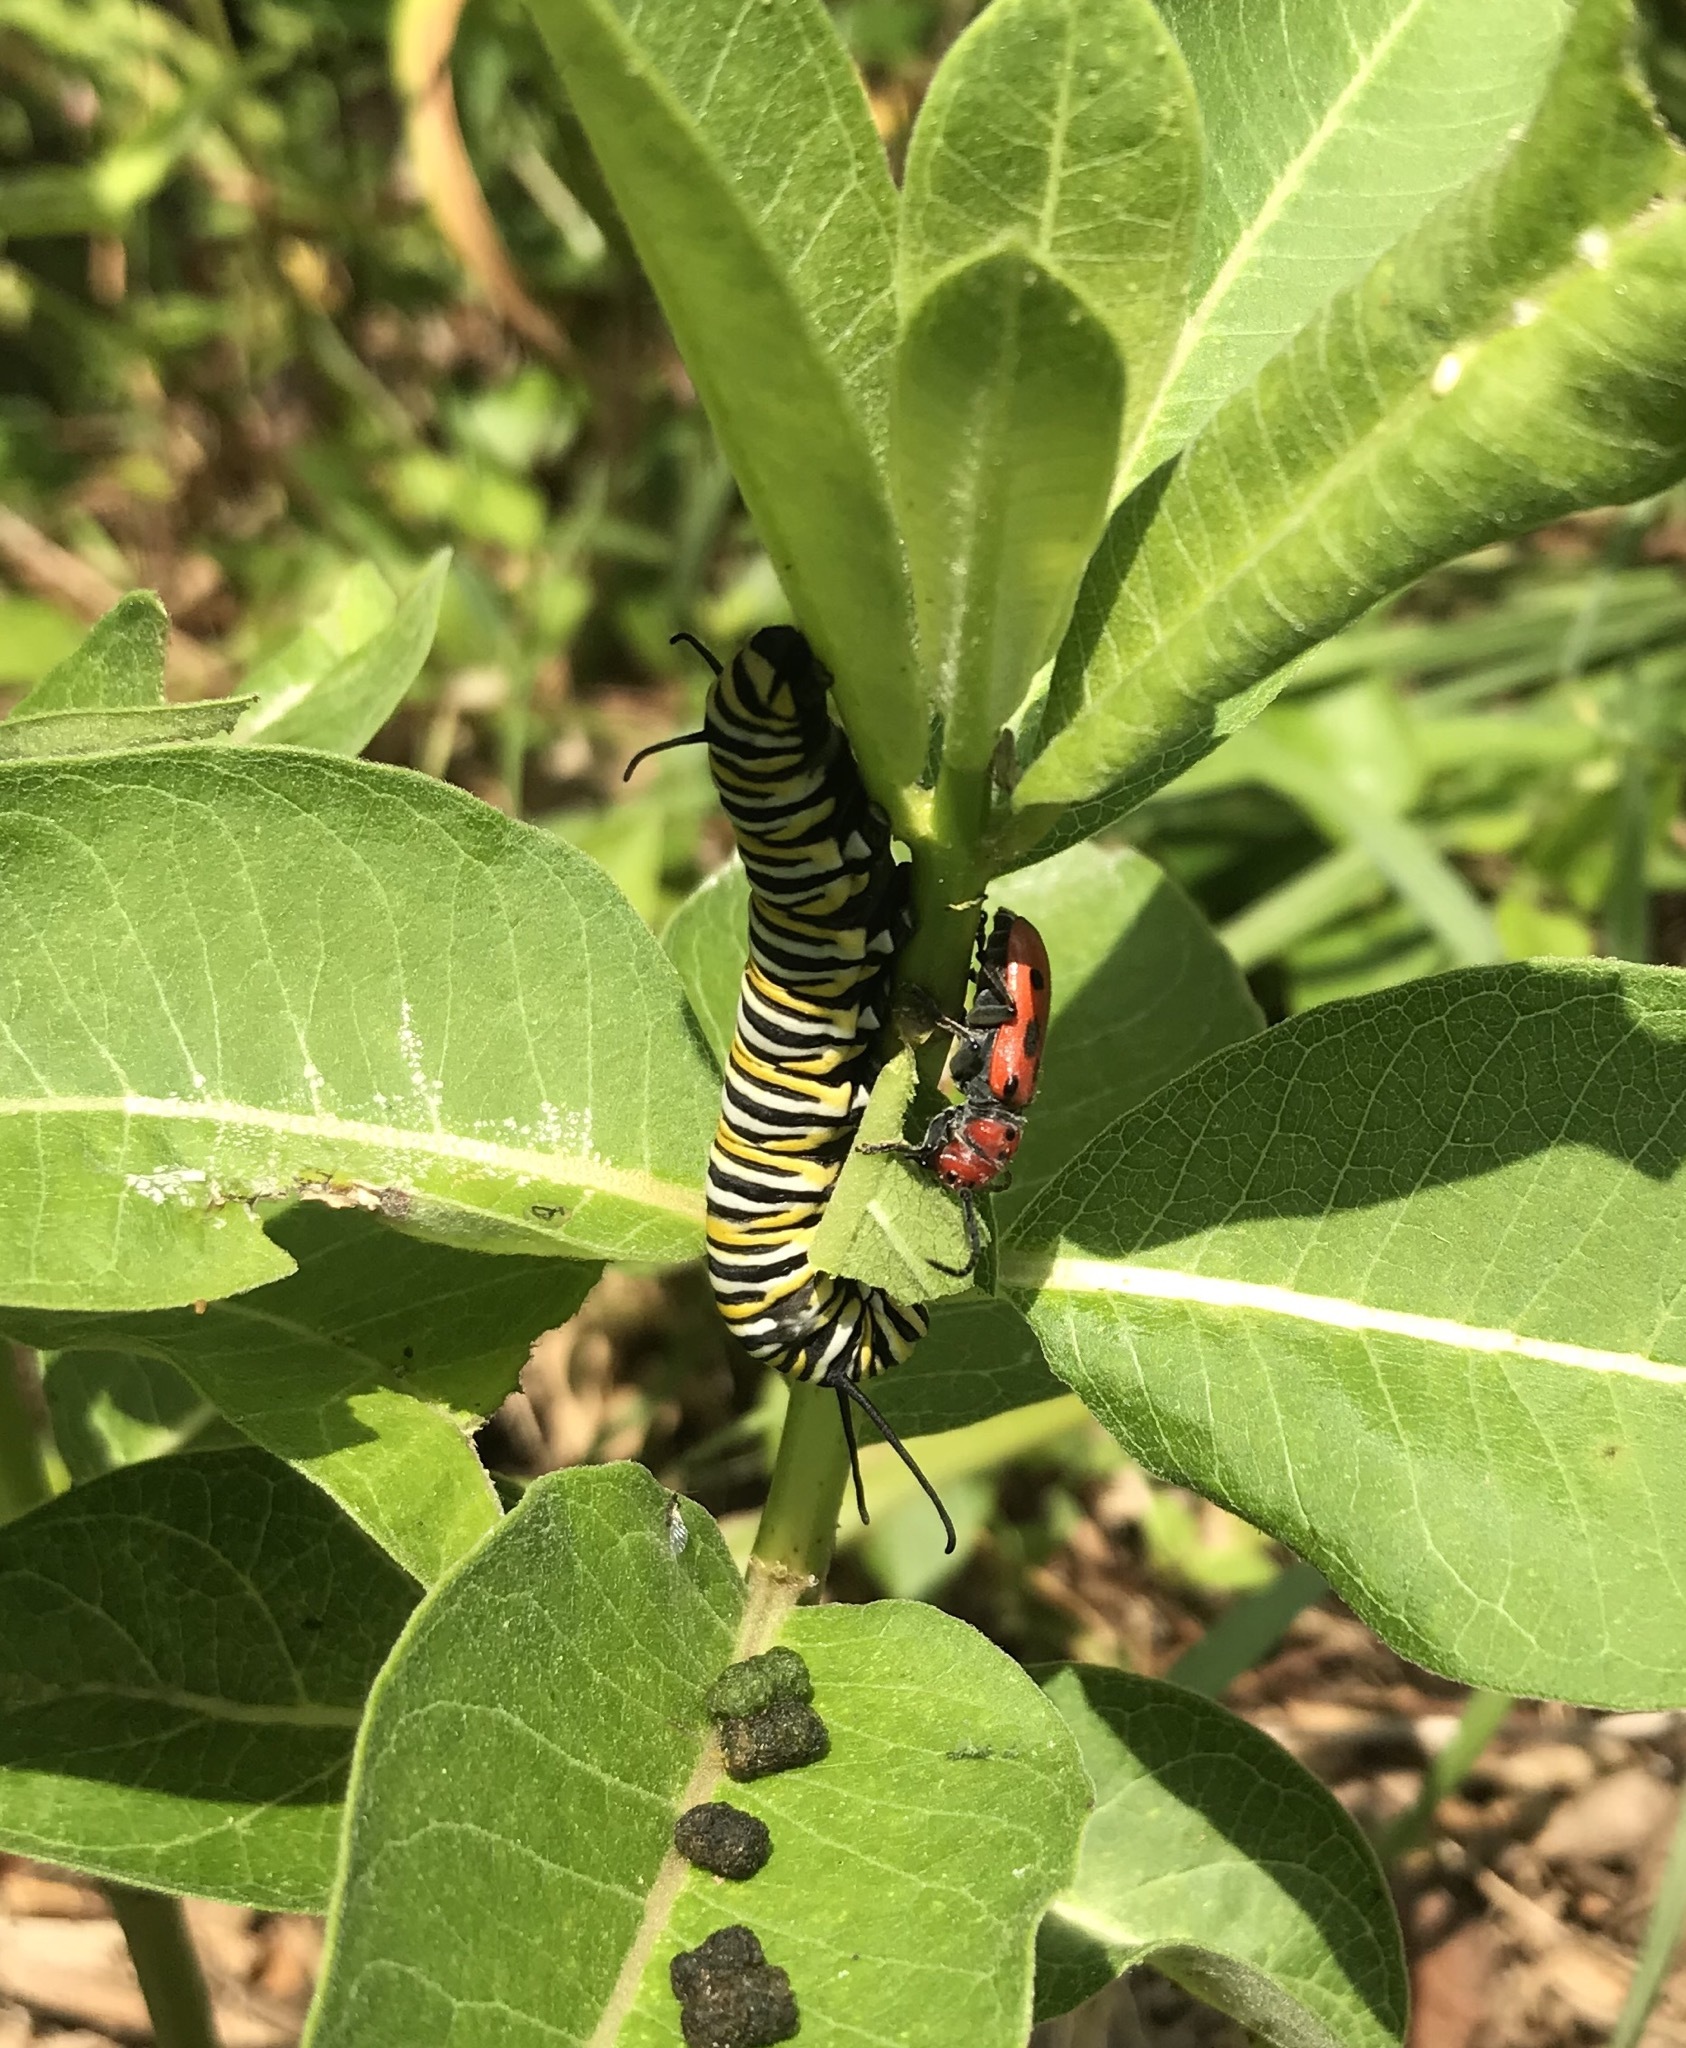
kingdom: Animalia
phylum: Arthropoda
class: Insecta
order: Lepidoptera
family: Nymphalidae
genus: Danaus
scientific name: Danaus plexippus
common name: Monarch
